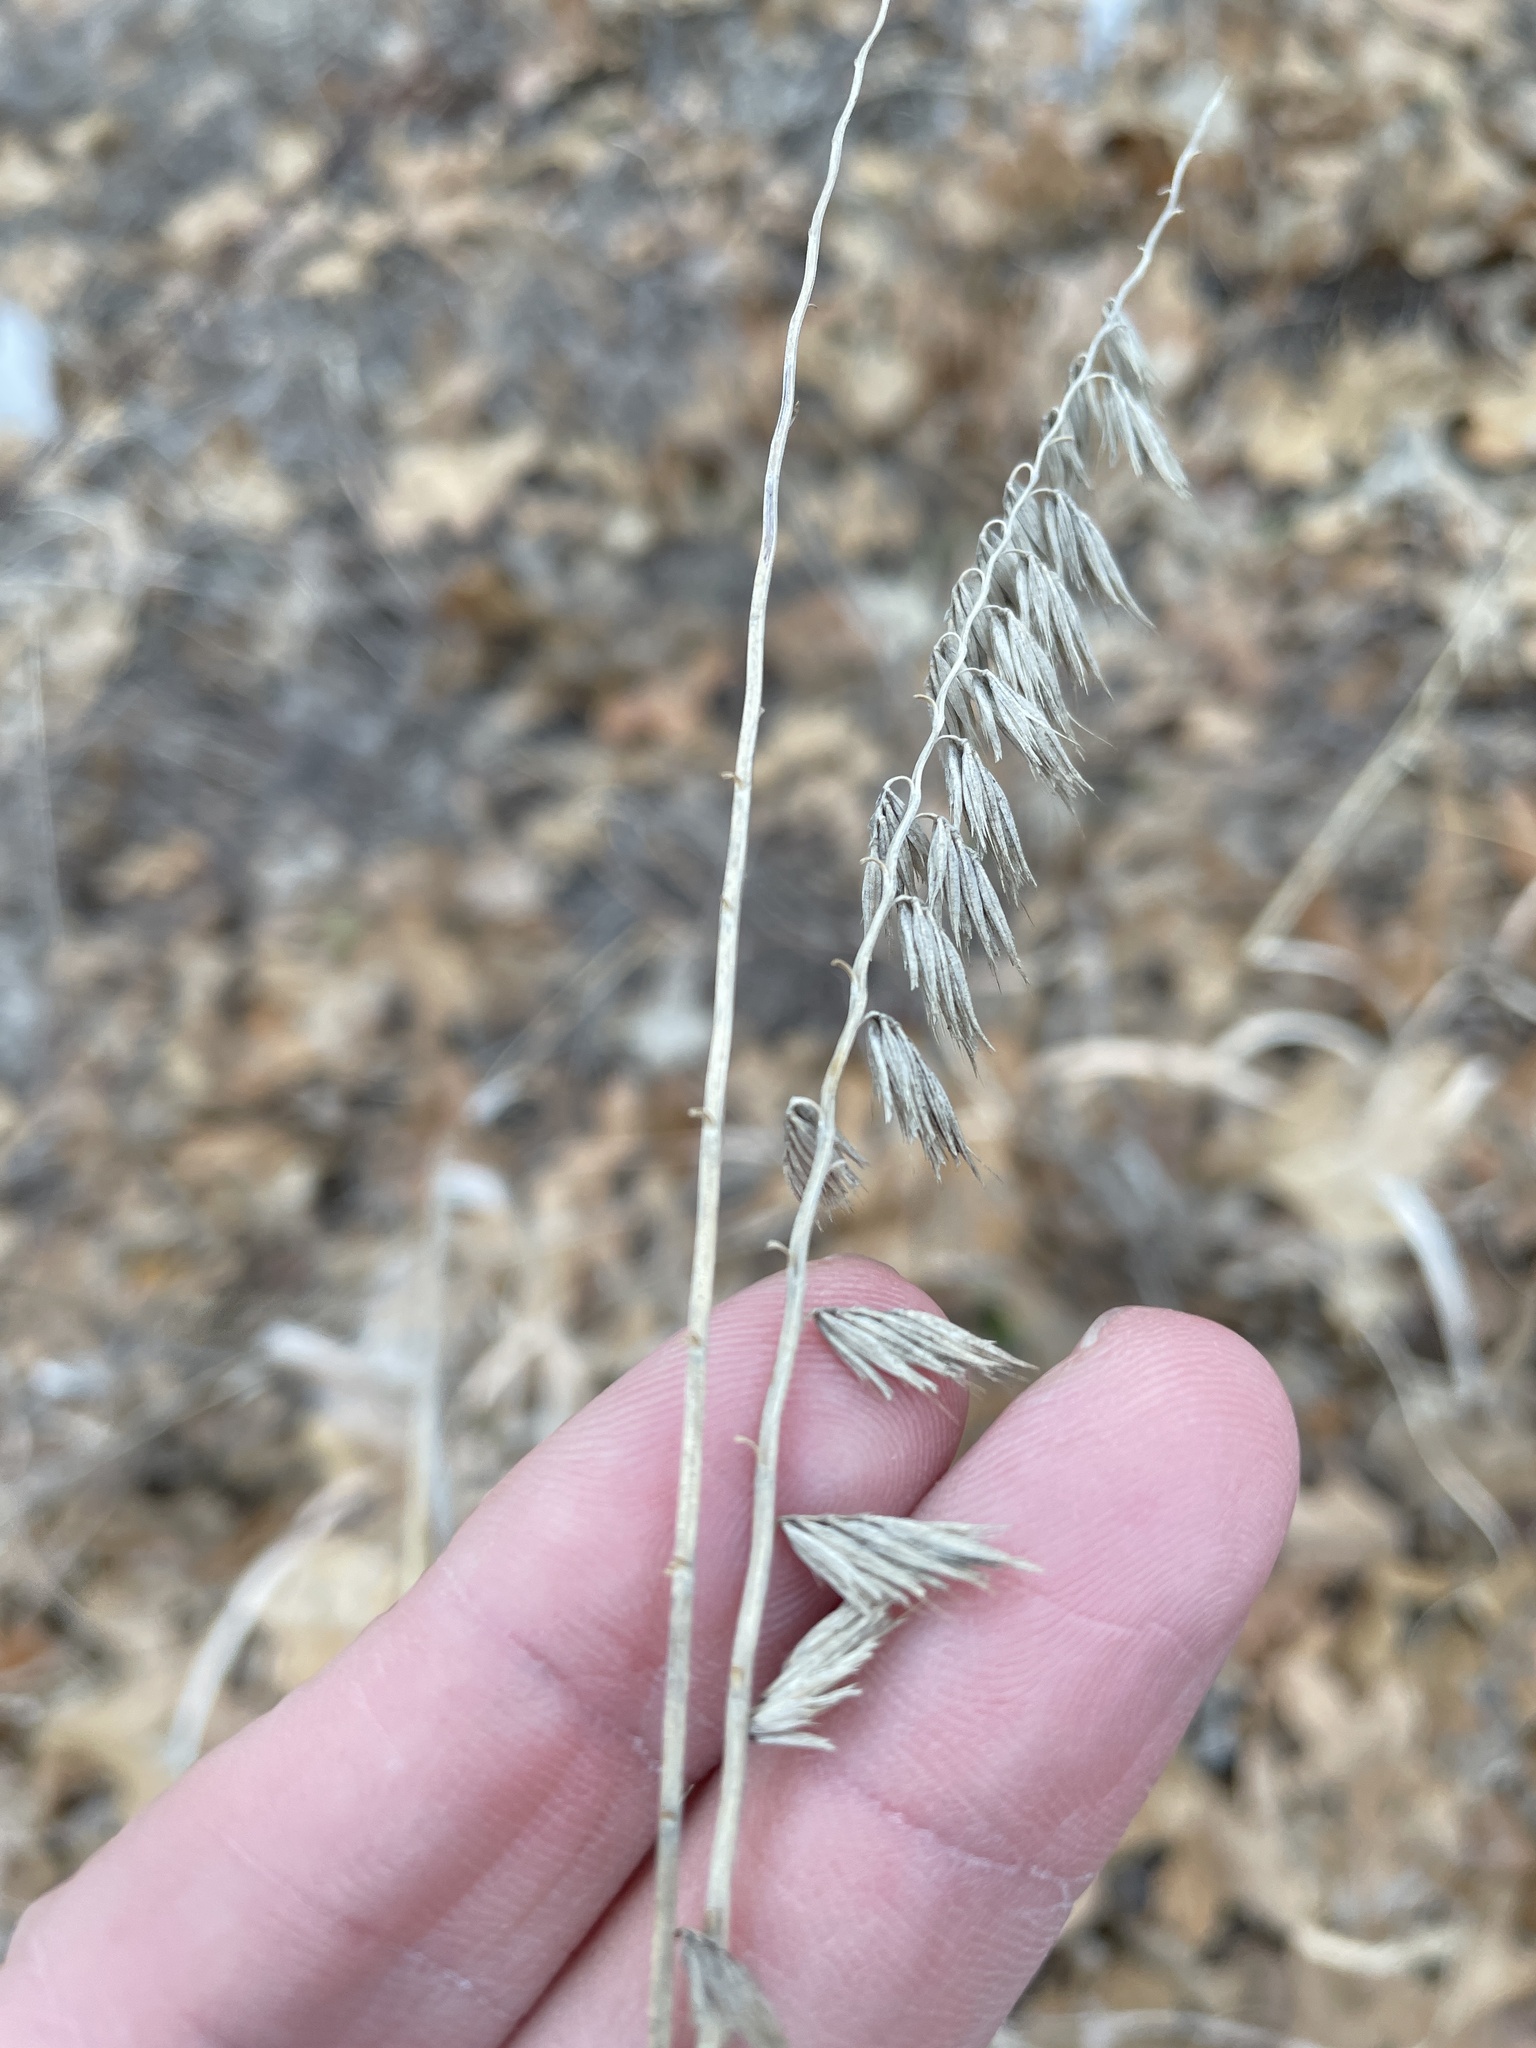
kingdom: Plantae
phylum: Tracheophyta
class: Liliopsida
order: Poales
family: Poaceae
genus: Bouteloua
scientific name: Bouteloua curtipendula
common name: Side-oats grama
